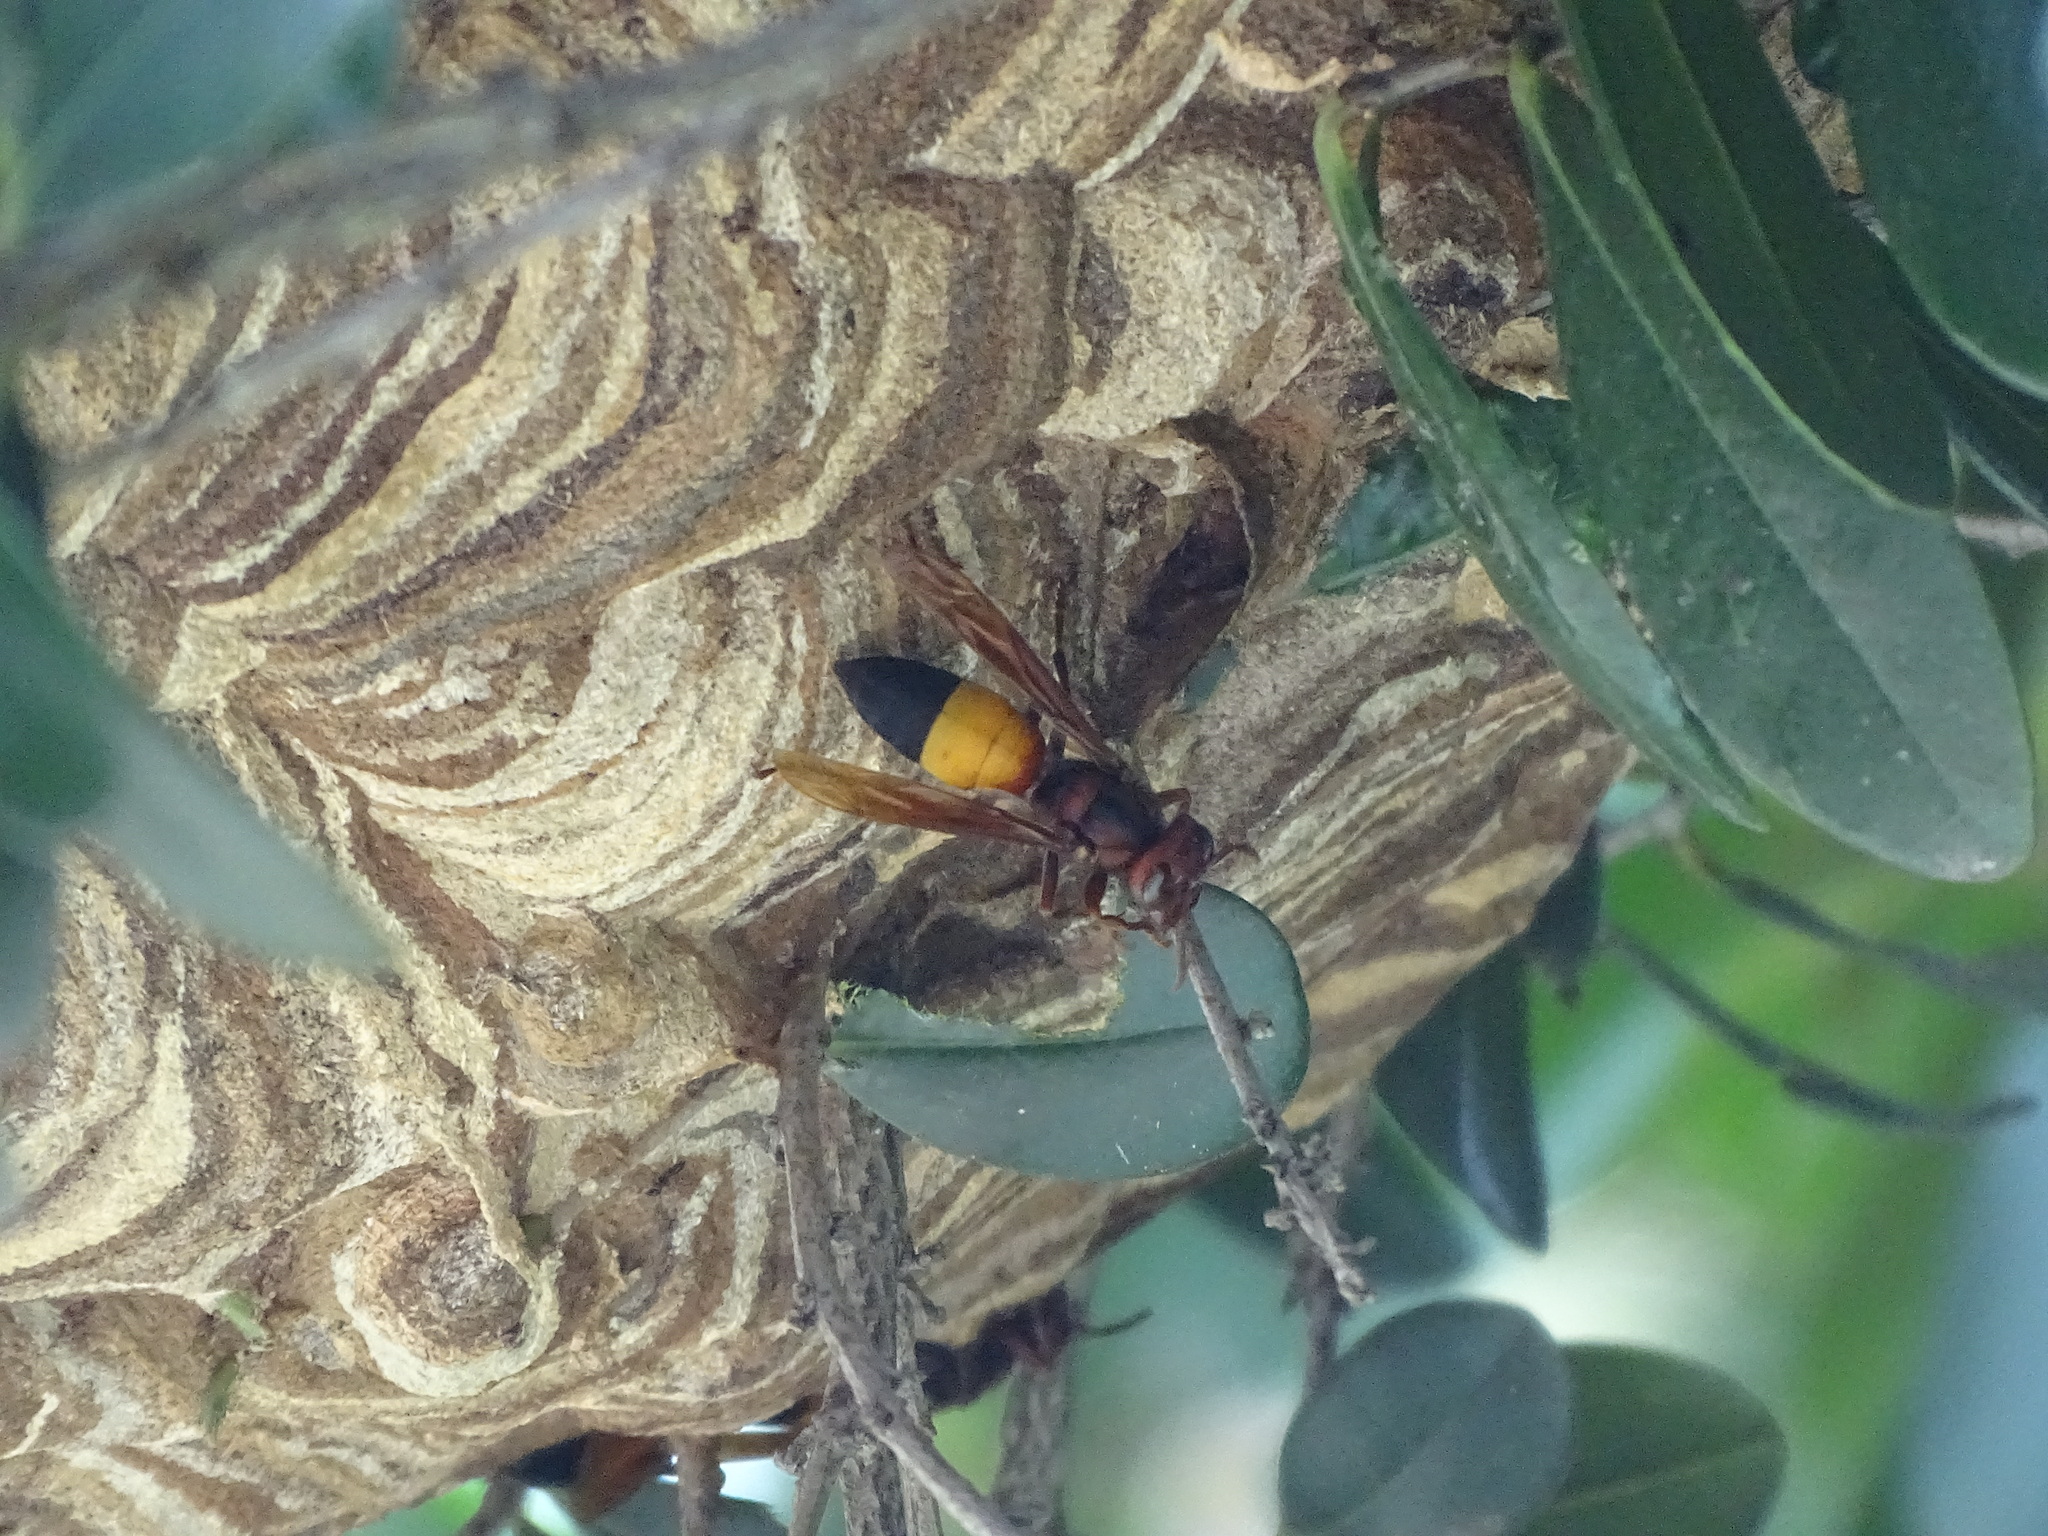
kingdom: Animalia
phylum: Arthropoda
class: Insecta
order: Hymenoptera
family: Vespidae
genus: Vespa
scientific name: Vespa affinis
